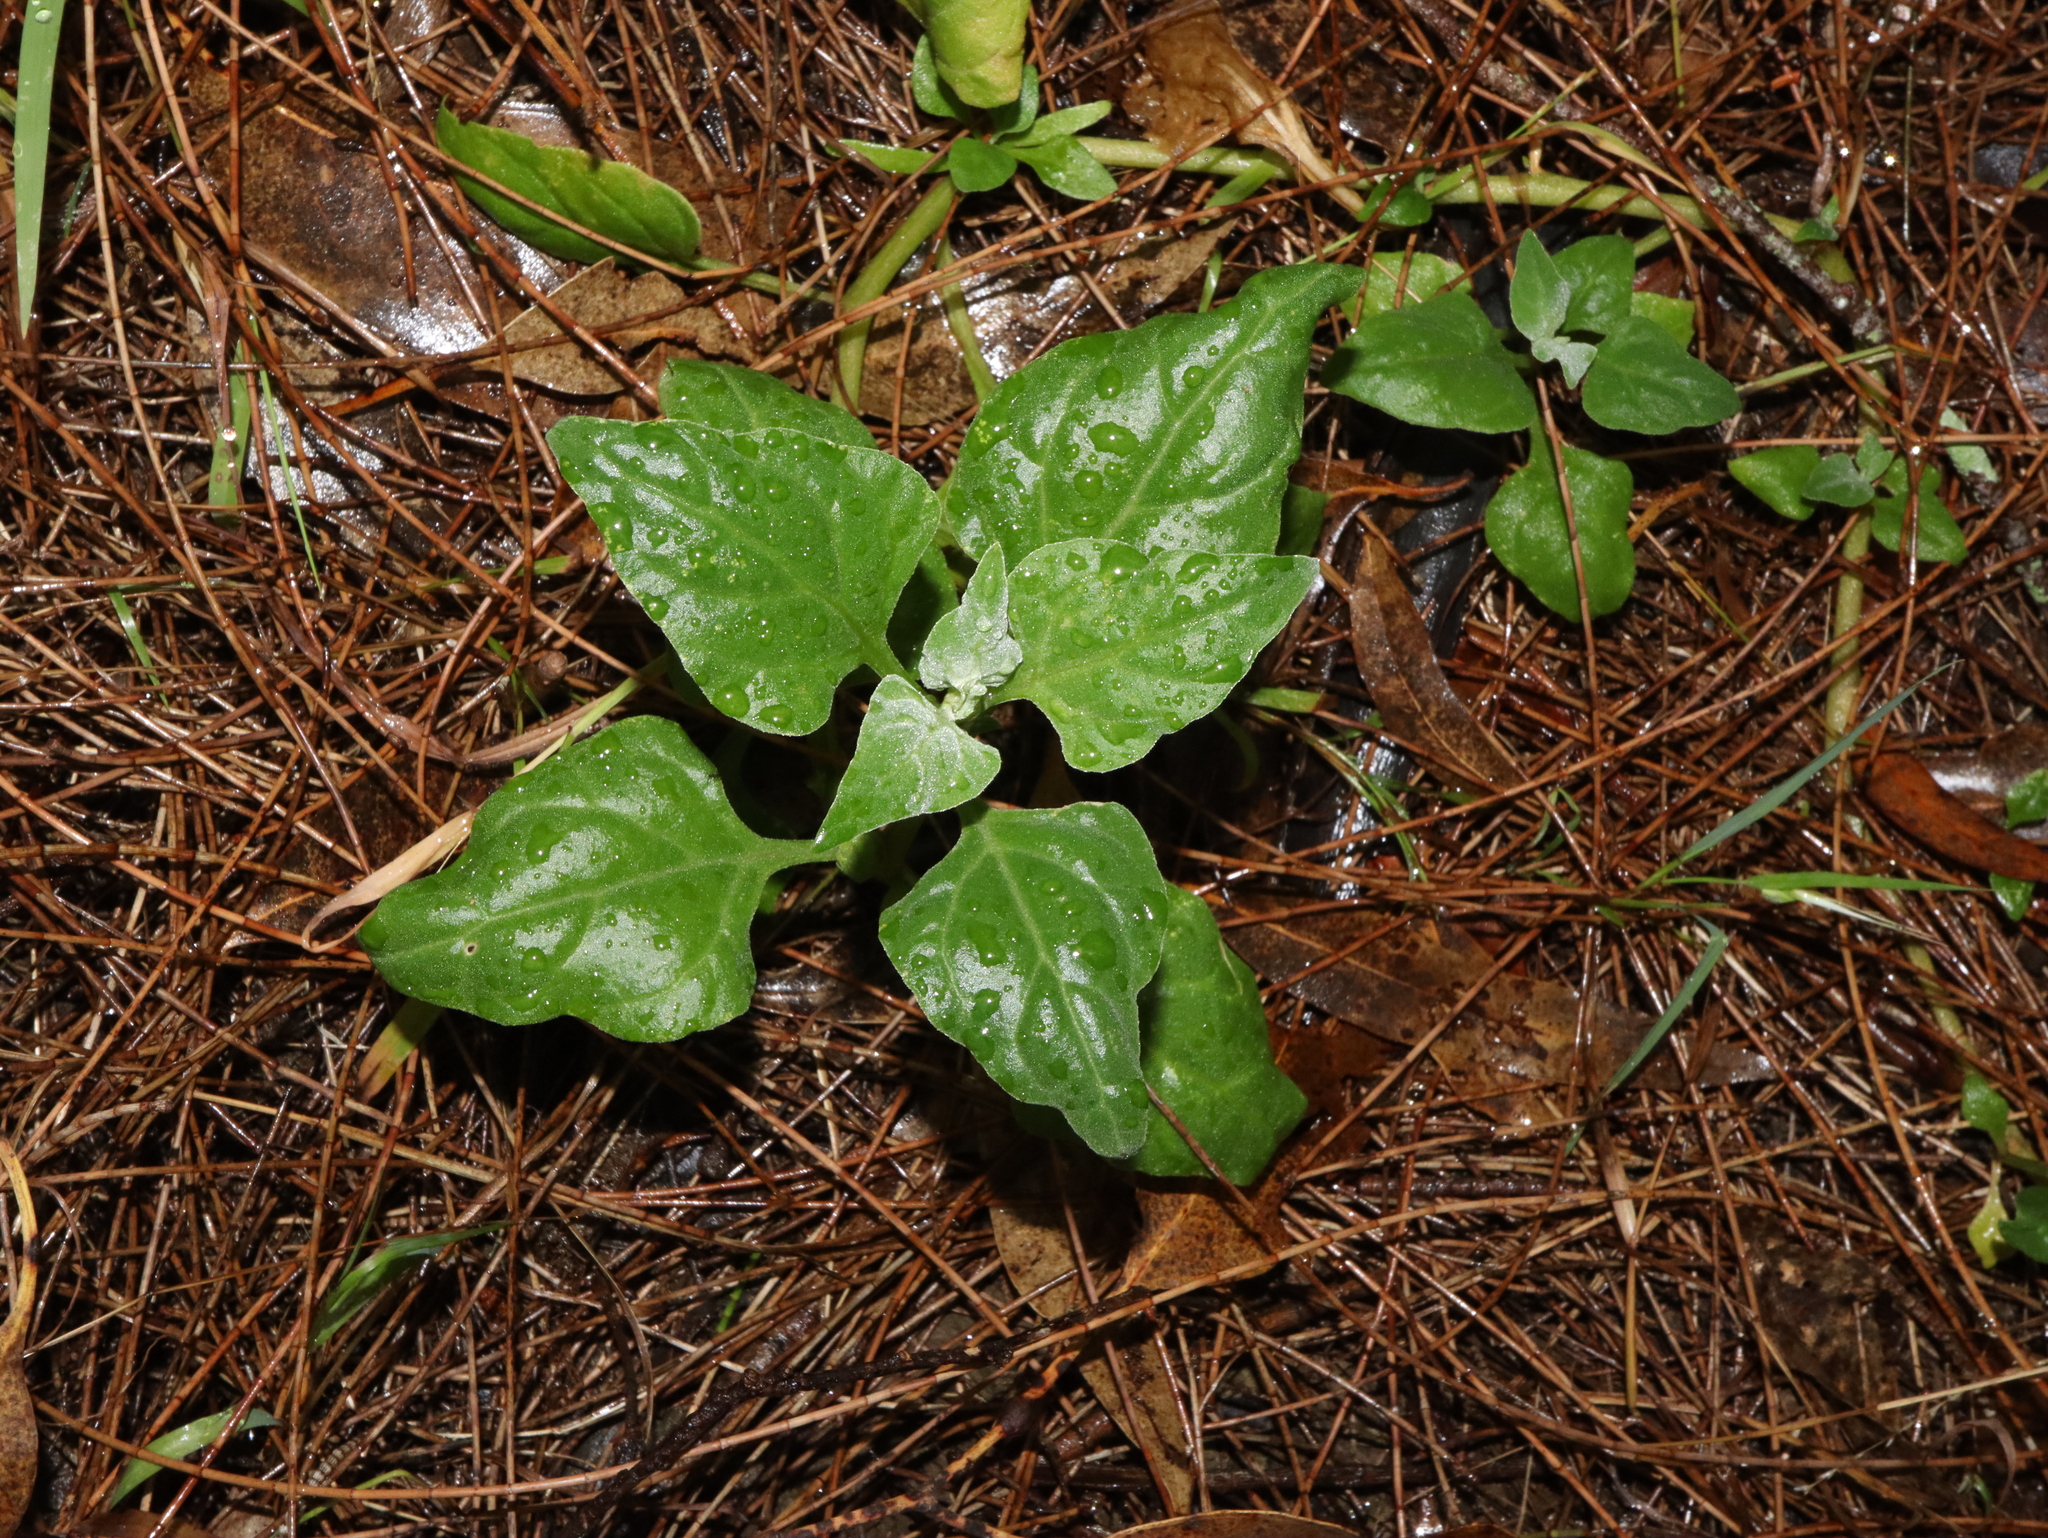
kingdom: Plantae
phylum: Tracheophyta
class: Magnoliopsida
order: Caryophyllales
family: Aizoaceae
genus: Tetragonia
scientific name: Tetragonia tetragonoides
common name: New zealand-spinach
